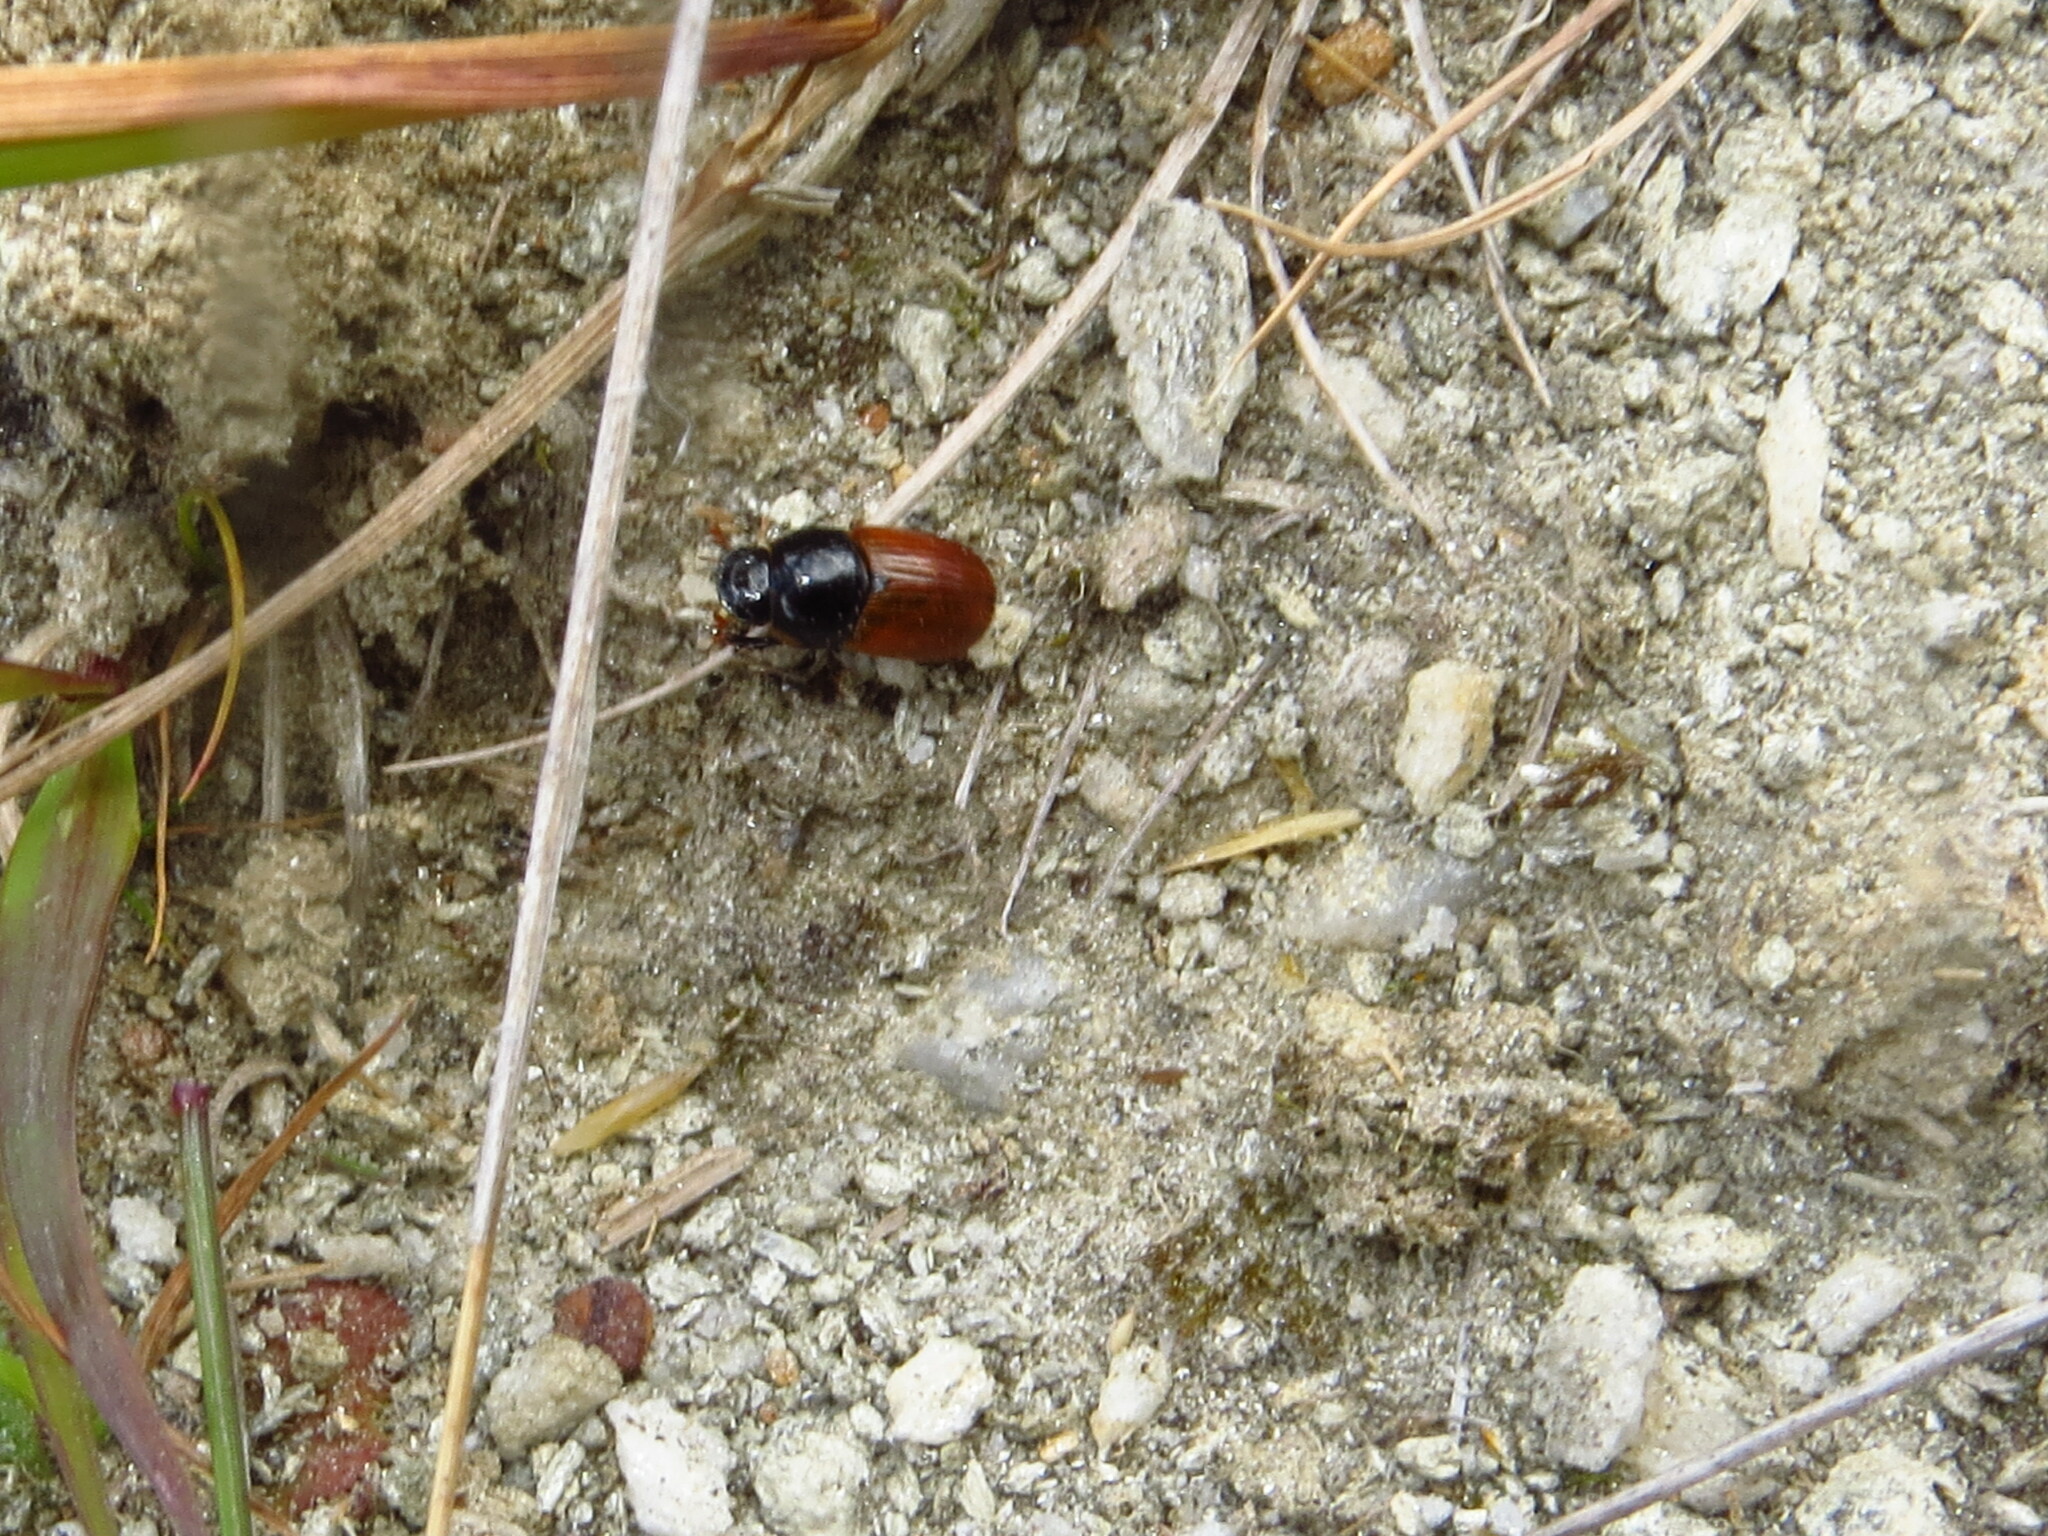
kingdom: Animalia
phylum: Arthropoda
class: Insecta
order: Coleoptera
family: Scarabaeidae
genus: Aphodius
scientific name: Aphodius fimetarius
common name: Common dung beetle
